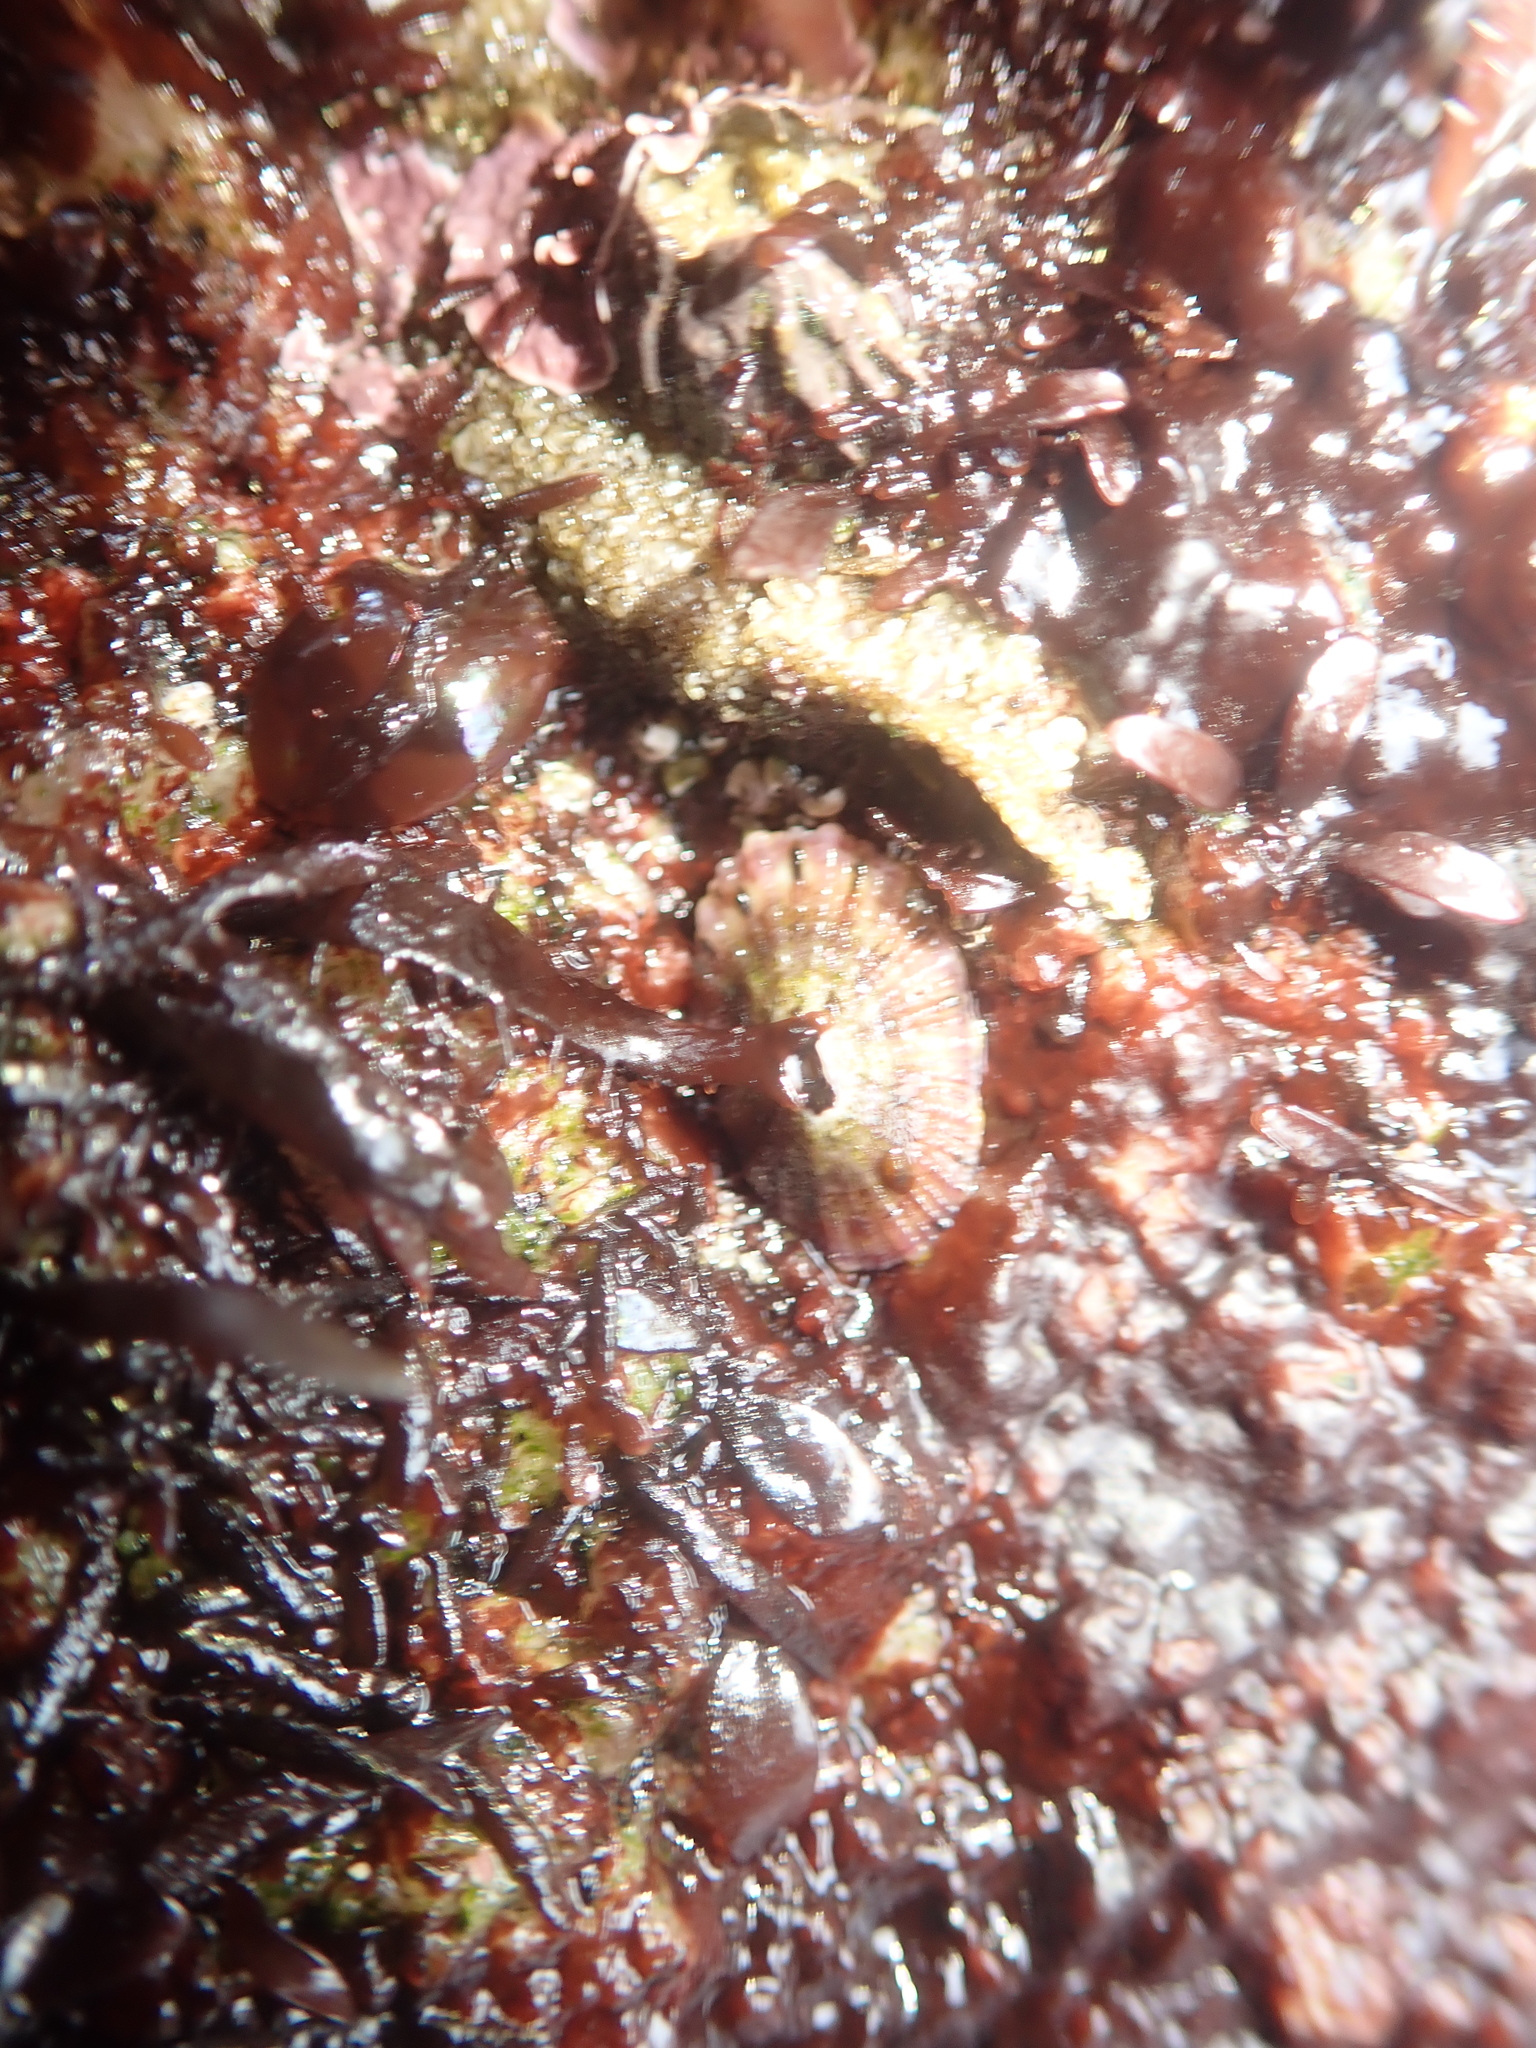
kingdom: Animalia
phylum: Mollusca
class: Gastropoda
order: Lepetellida
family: Fissurellidae
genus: Fissurella
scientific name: Fissurella volcano
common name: Volcano keyhole limpet
